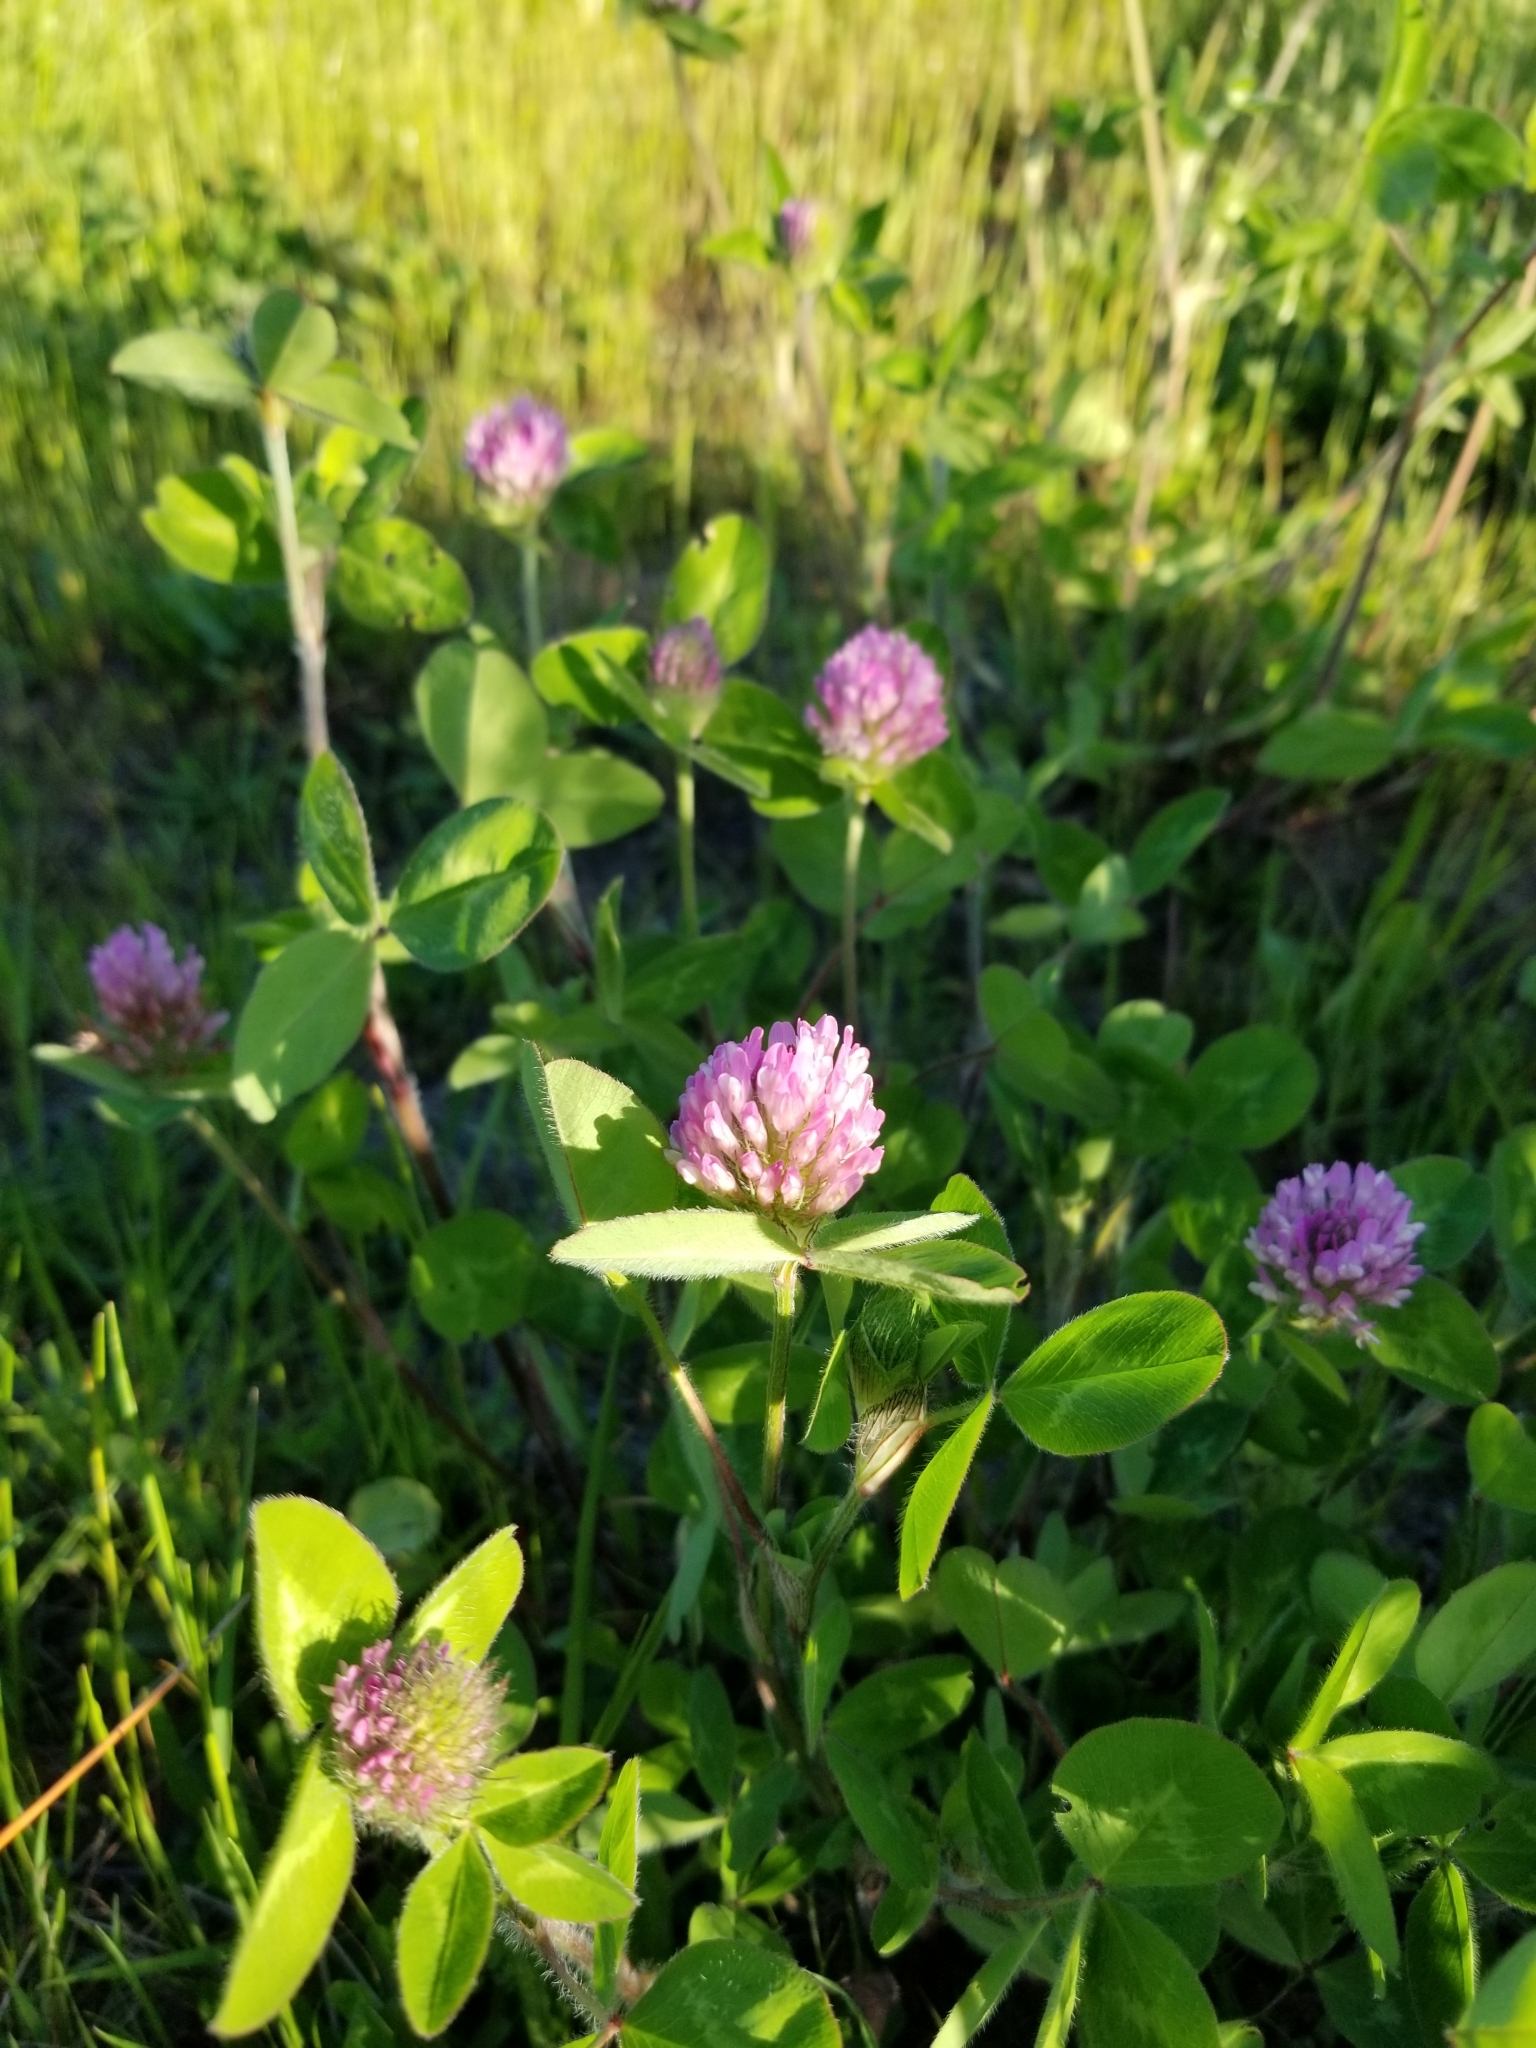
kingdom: Plantae
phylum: Tracheophyta
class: Magnoliopsida
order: Fabales
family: Fabaceae
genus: Trifolium
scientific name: Trifolium pratense
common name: Red clover
